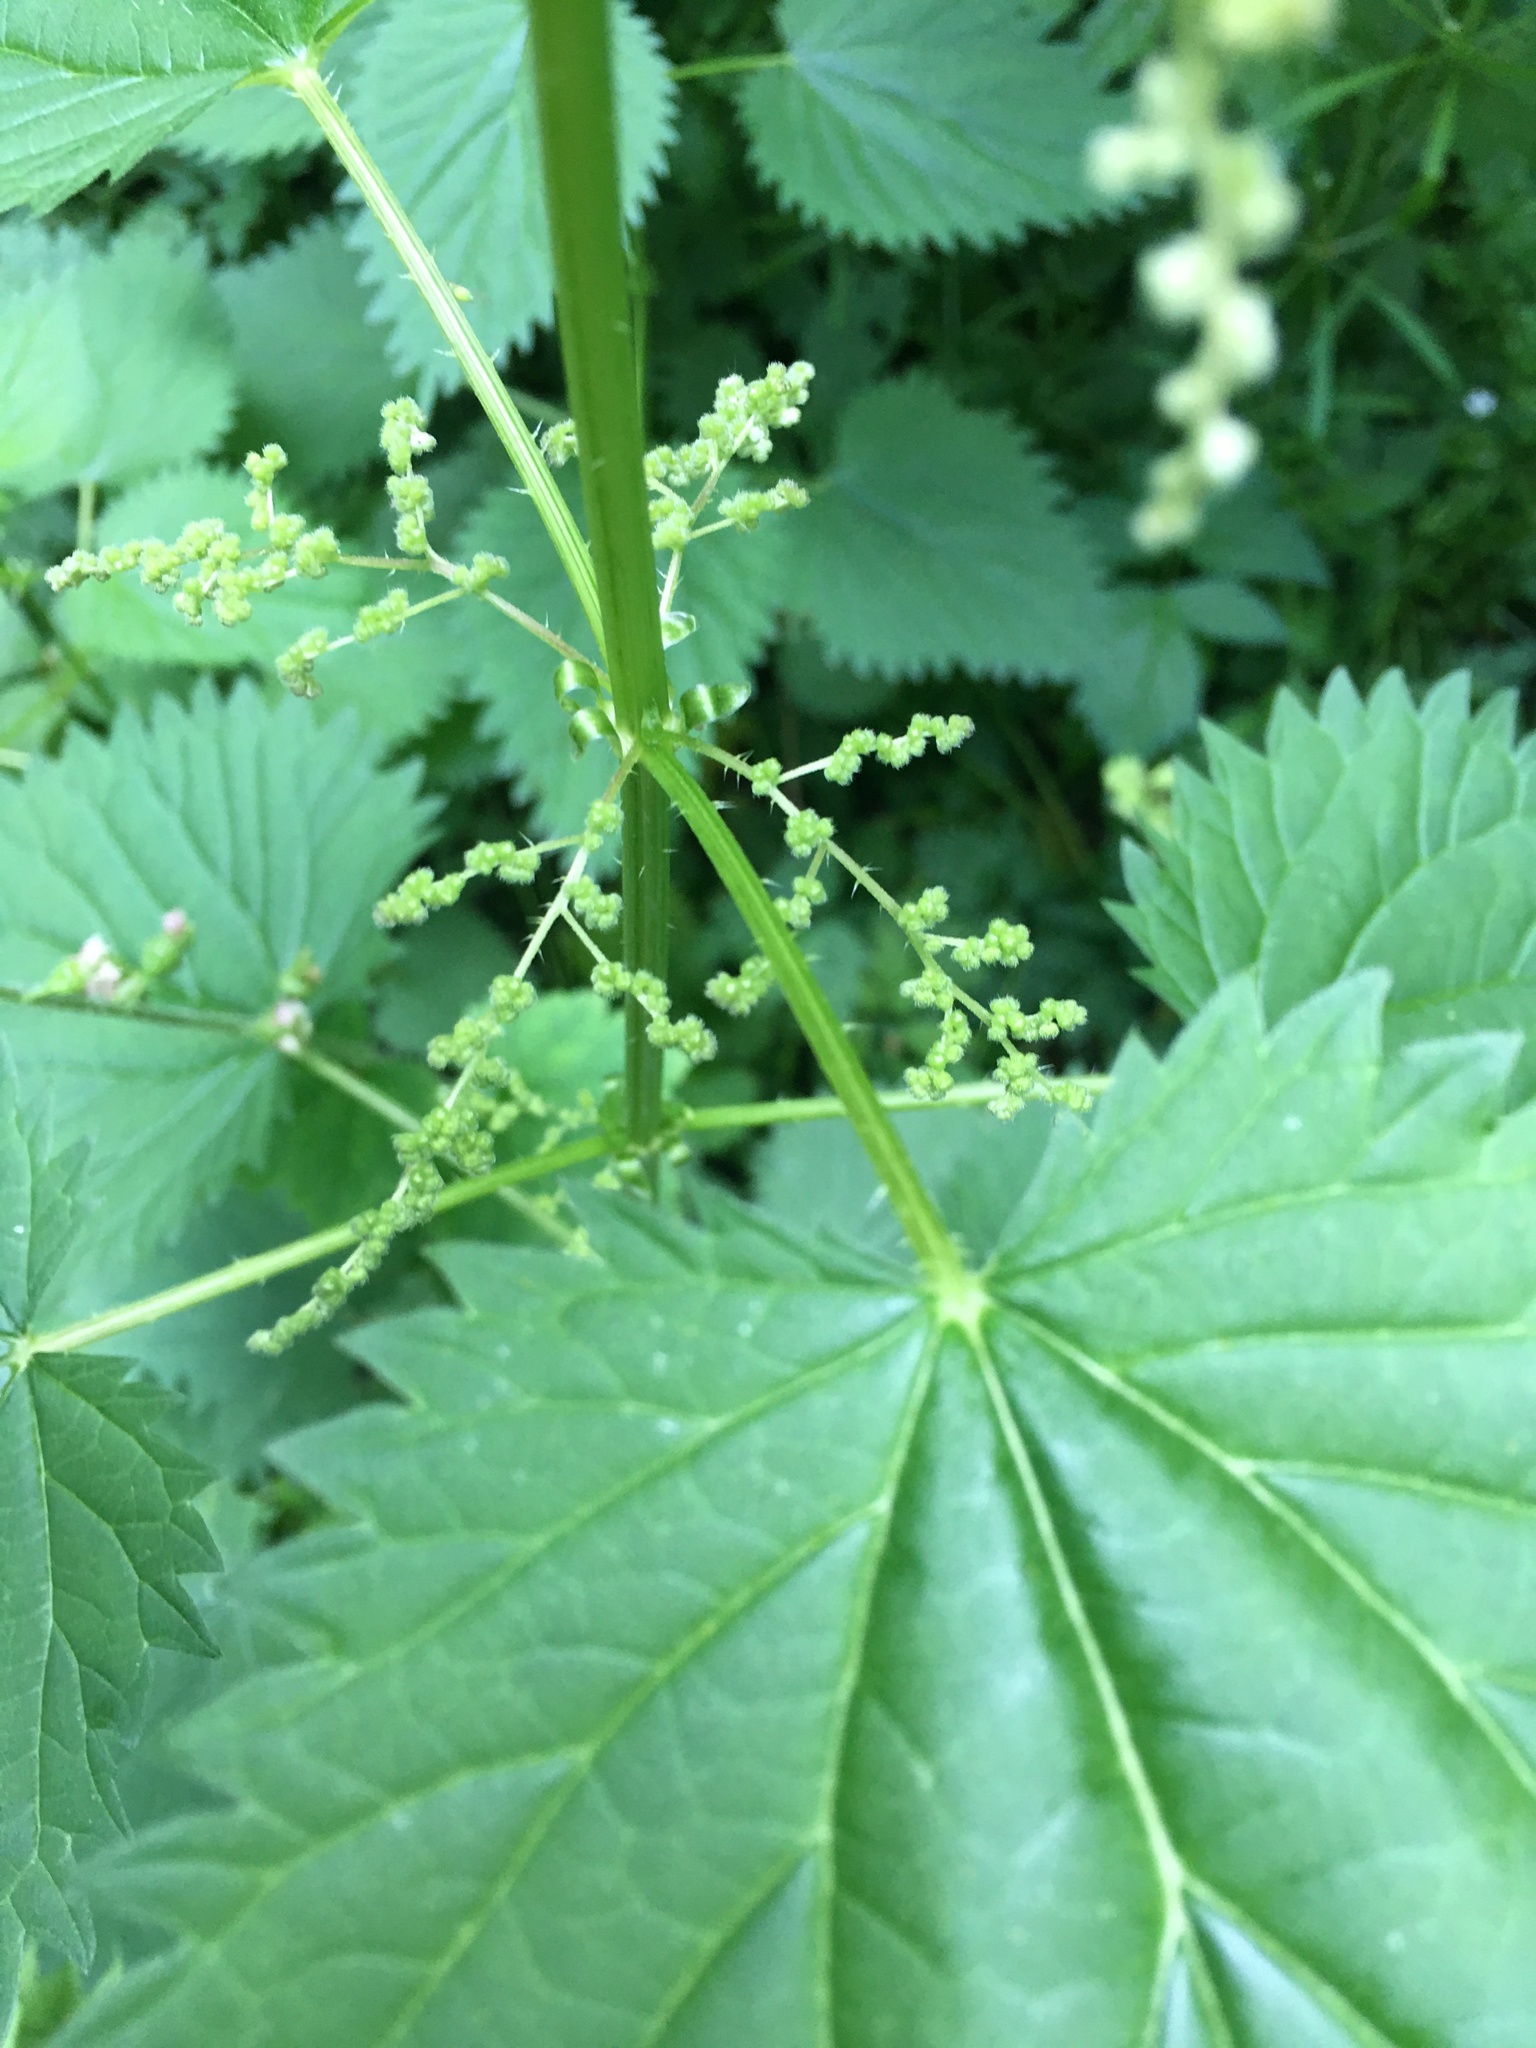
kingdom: Plantae
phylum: Tracheophyta
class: Magnoliopsida
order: Rosales
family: Urticaceae
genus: Urtica
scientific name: Urtica dioica
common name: Common nettle
